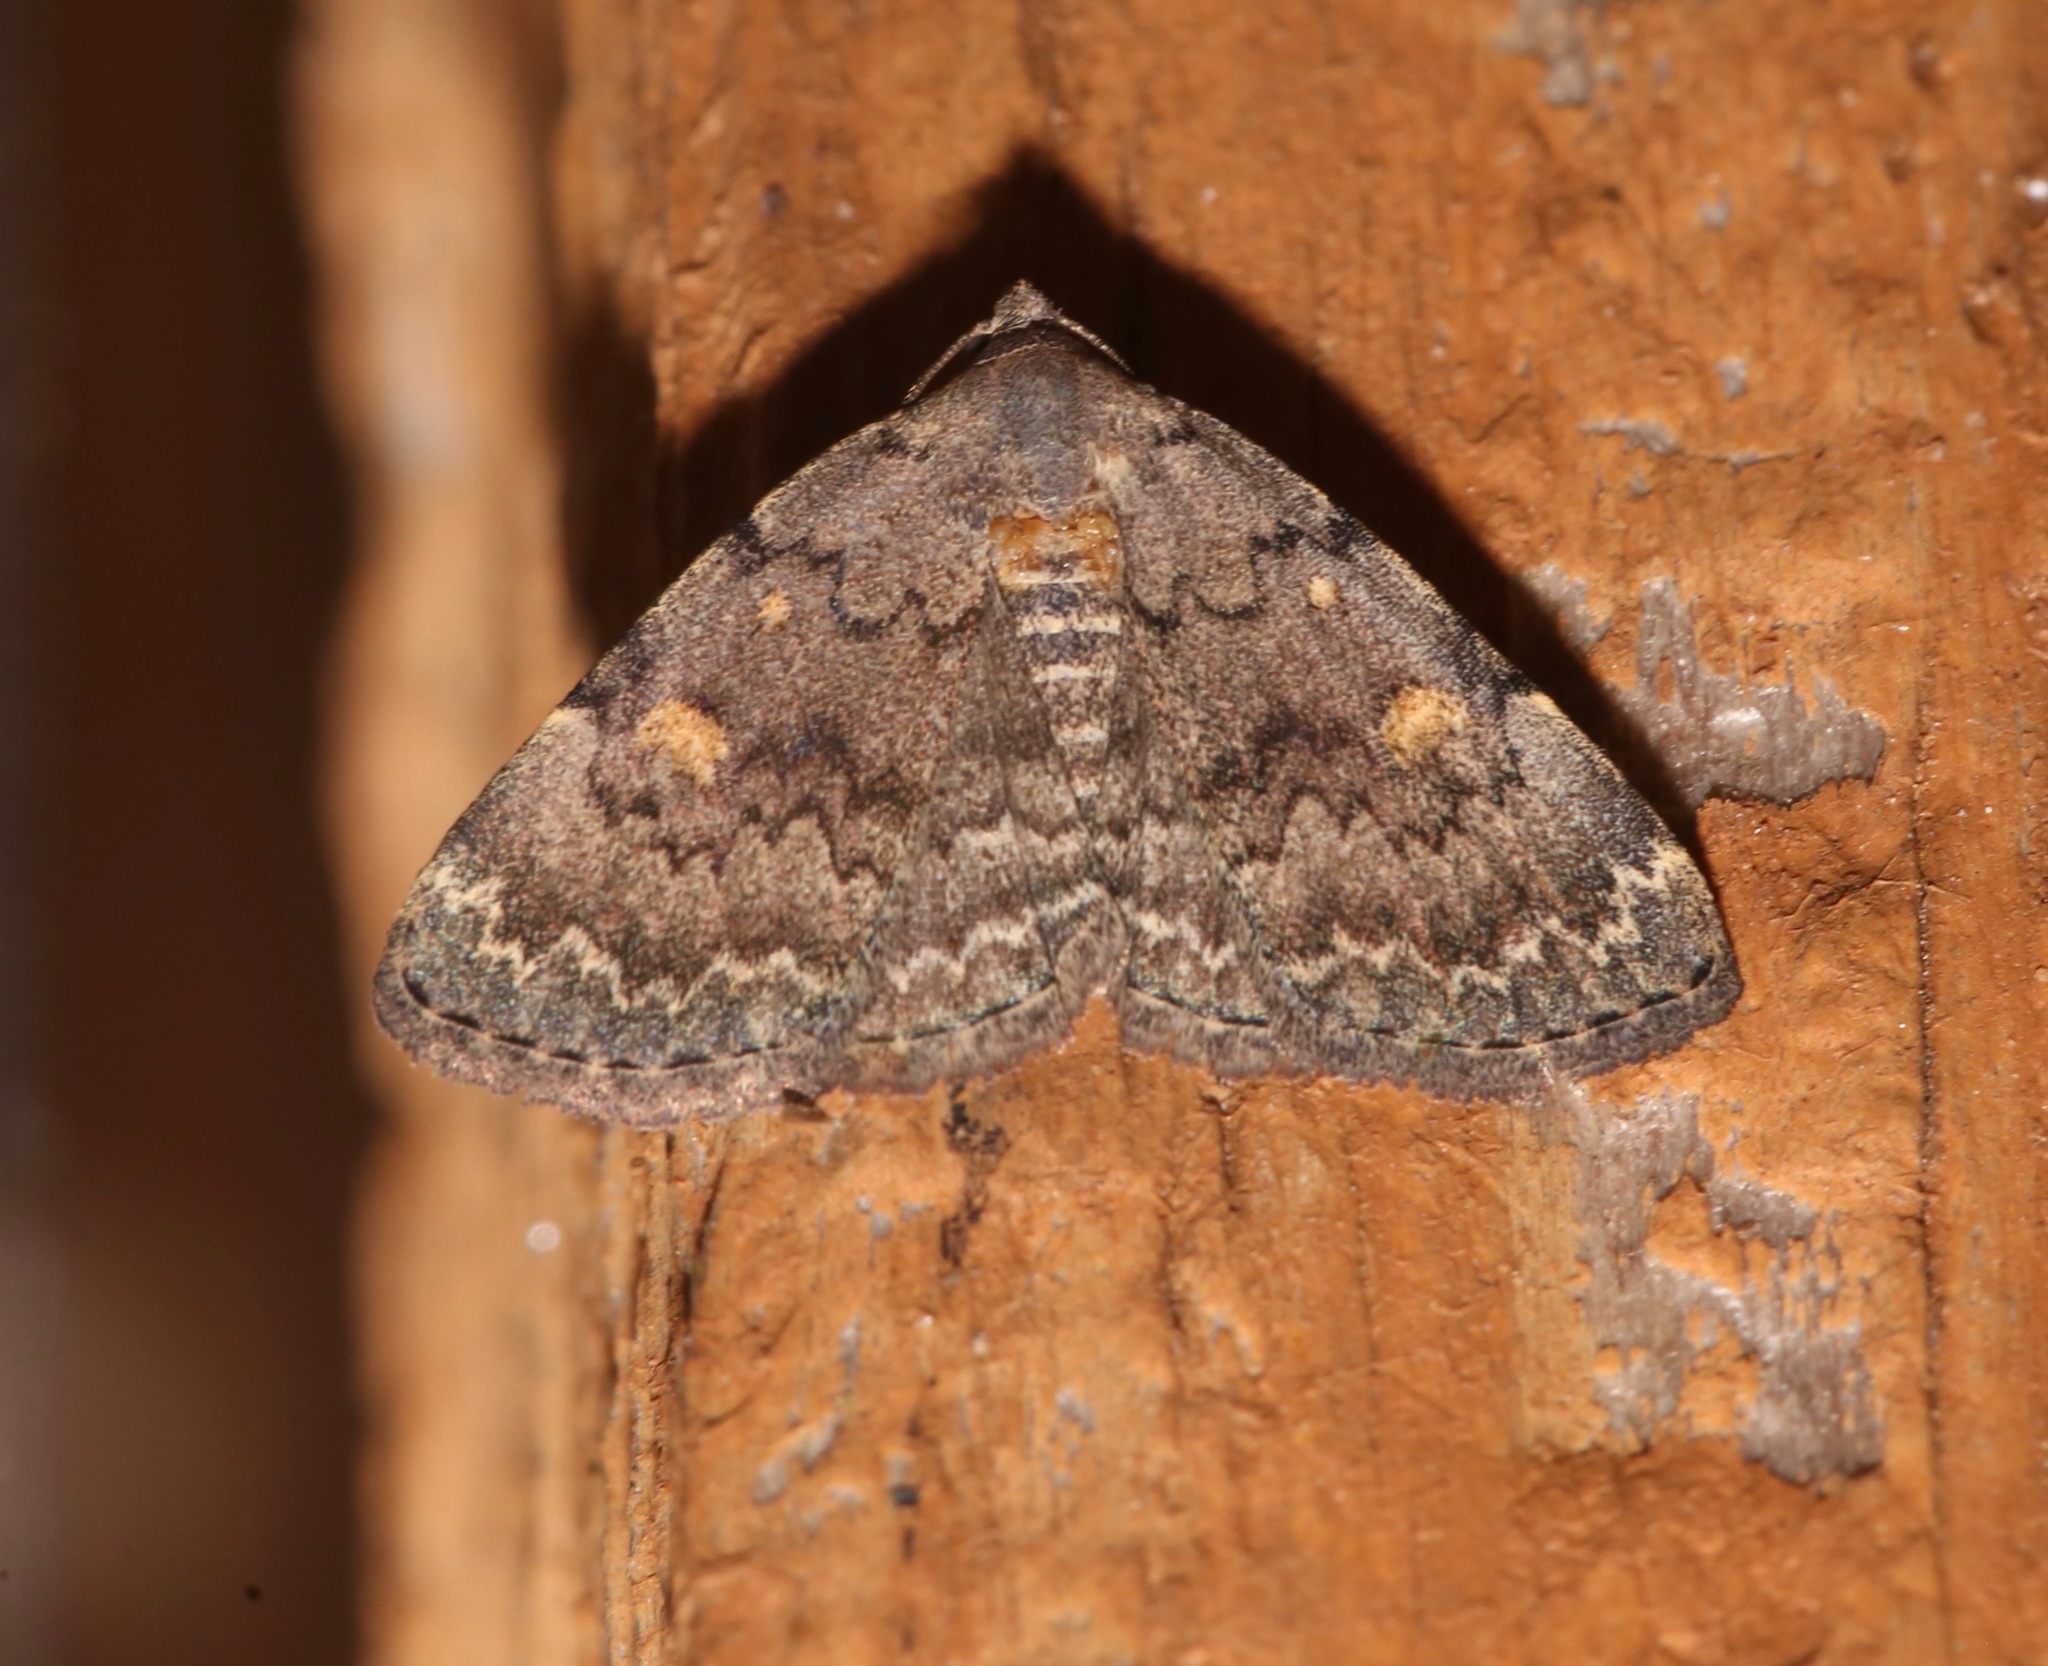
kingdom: Animalia
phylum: Arthropoda
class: Insecta
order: Lepidoptera
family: Erebidae
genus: Idia
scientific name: Idia aemula
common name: Common idia moth
